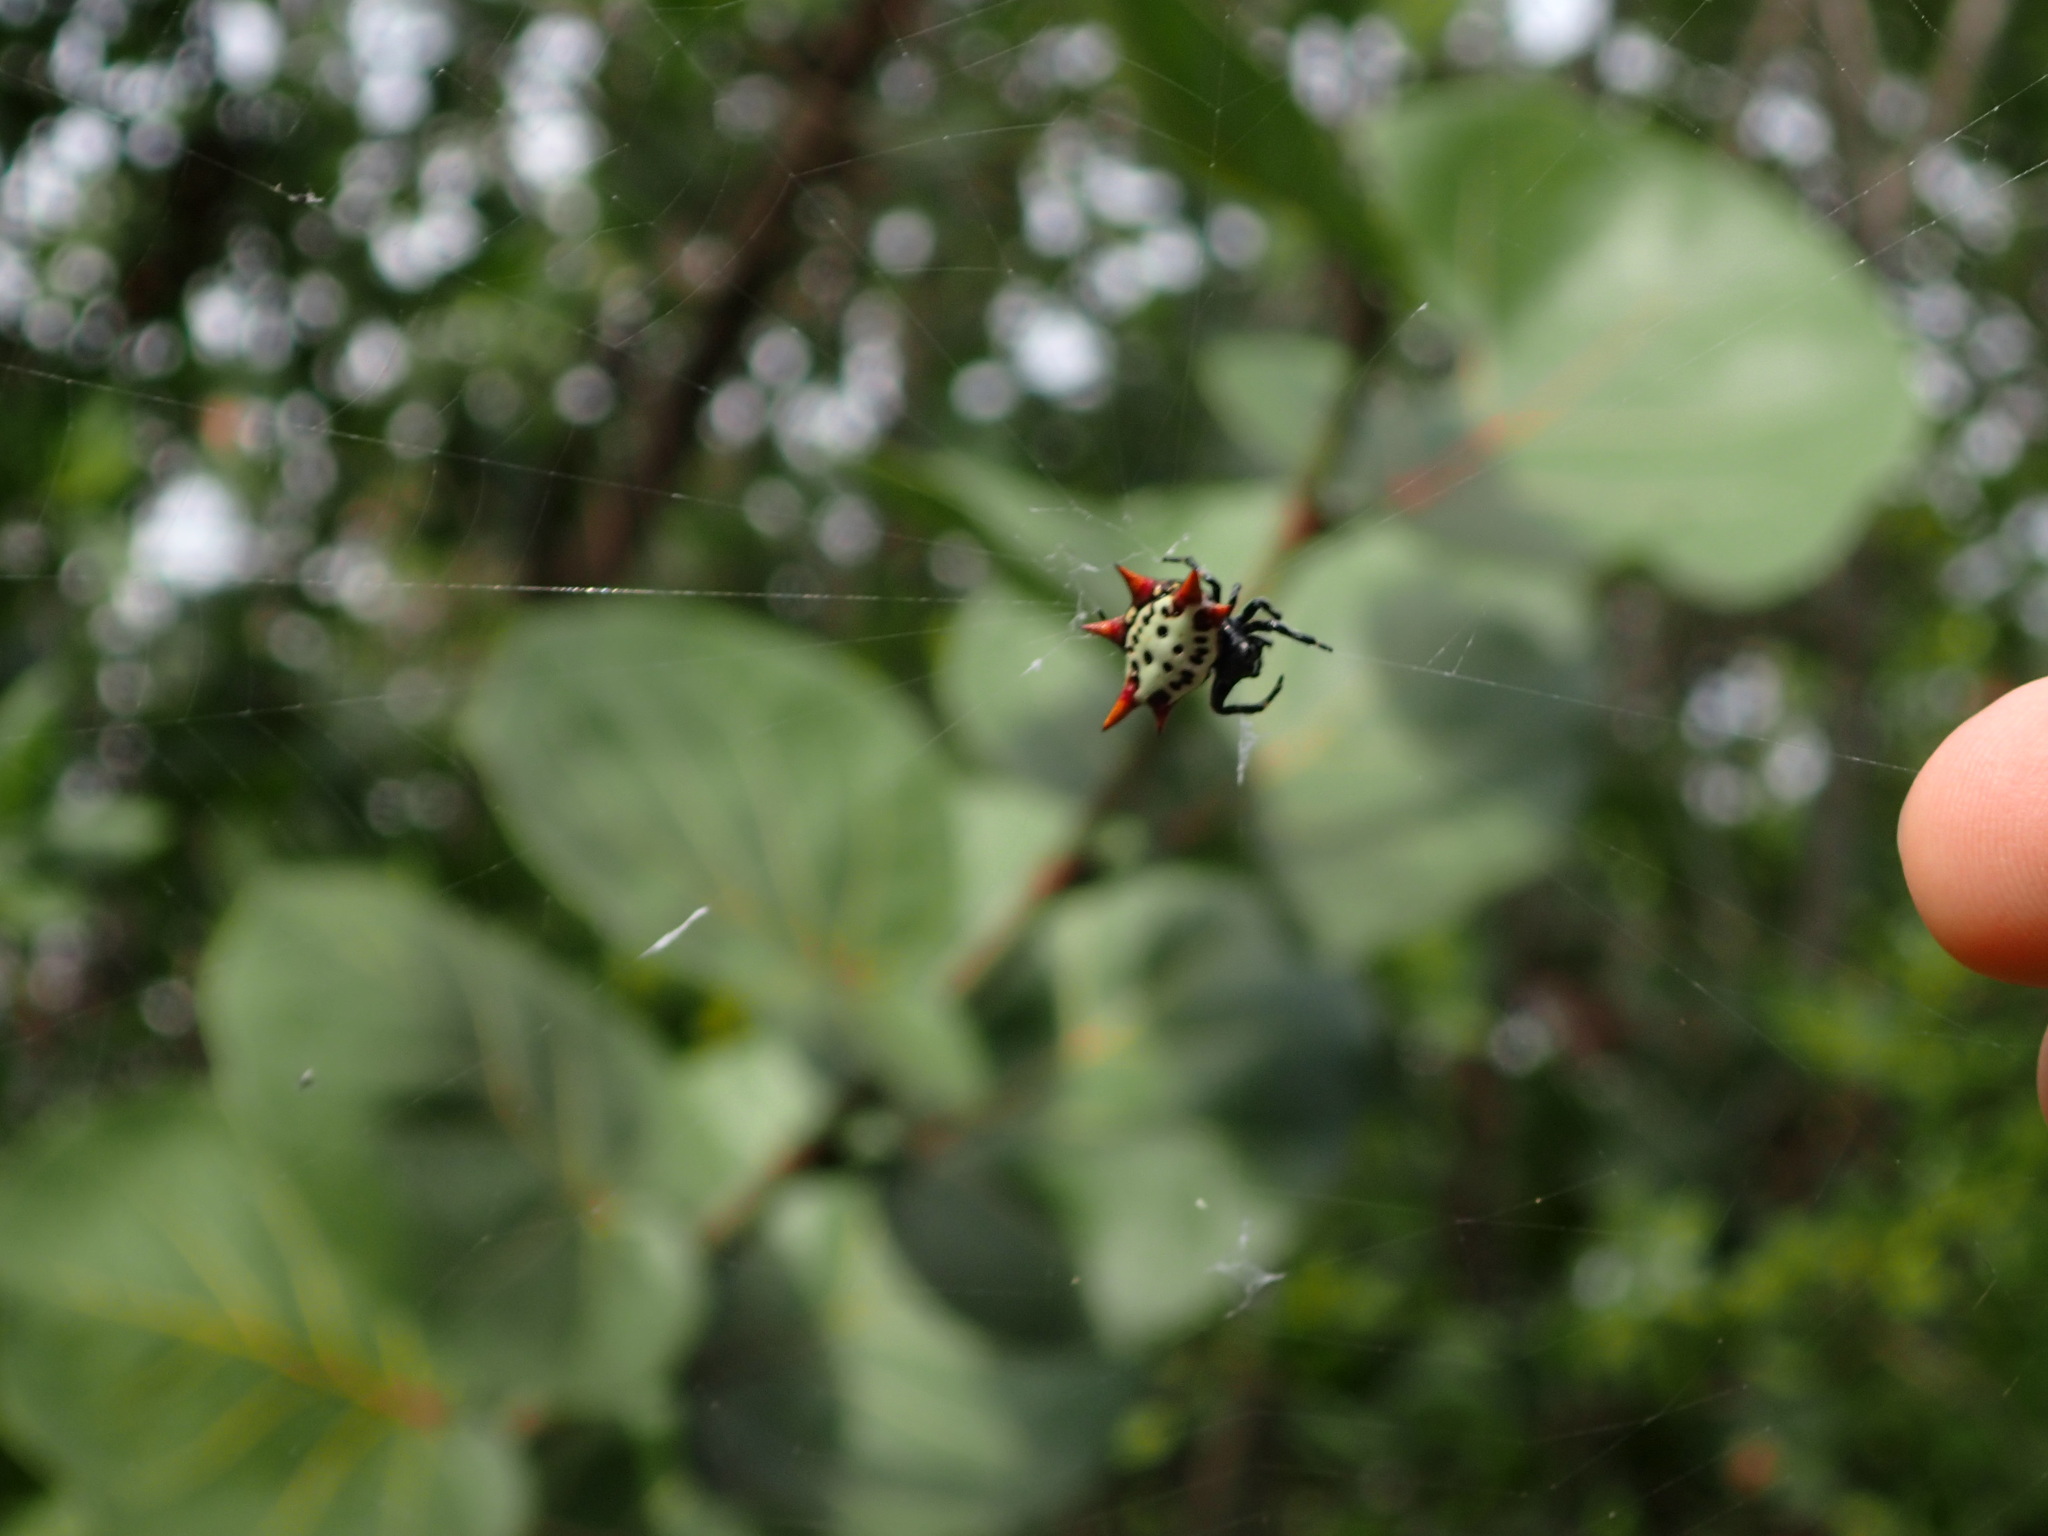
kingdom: Animalia
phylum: Arthropoda
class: Arachnida
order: Araneae
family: Araneidae
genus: Gasteracantha
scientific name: Gasteracantha cancriformis
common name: Orb weavers
